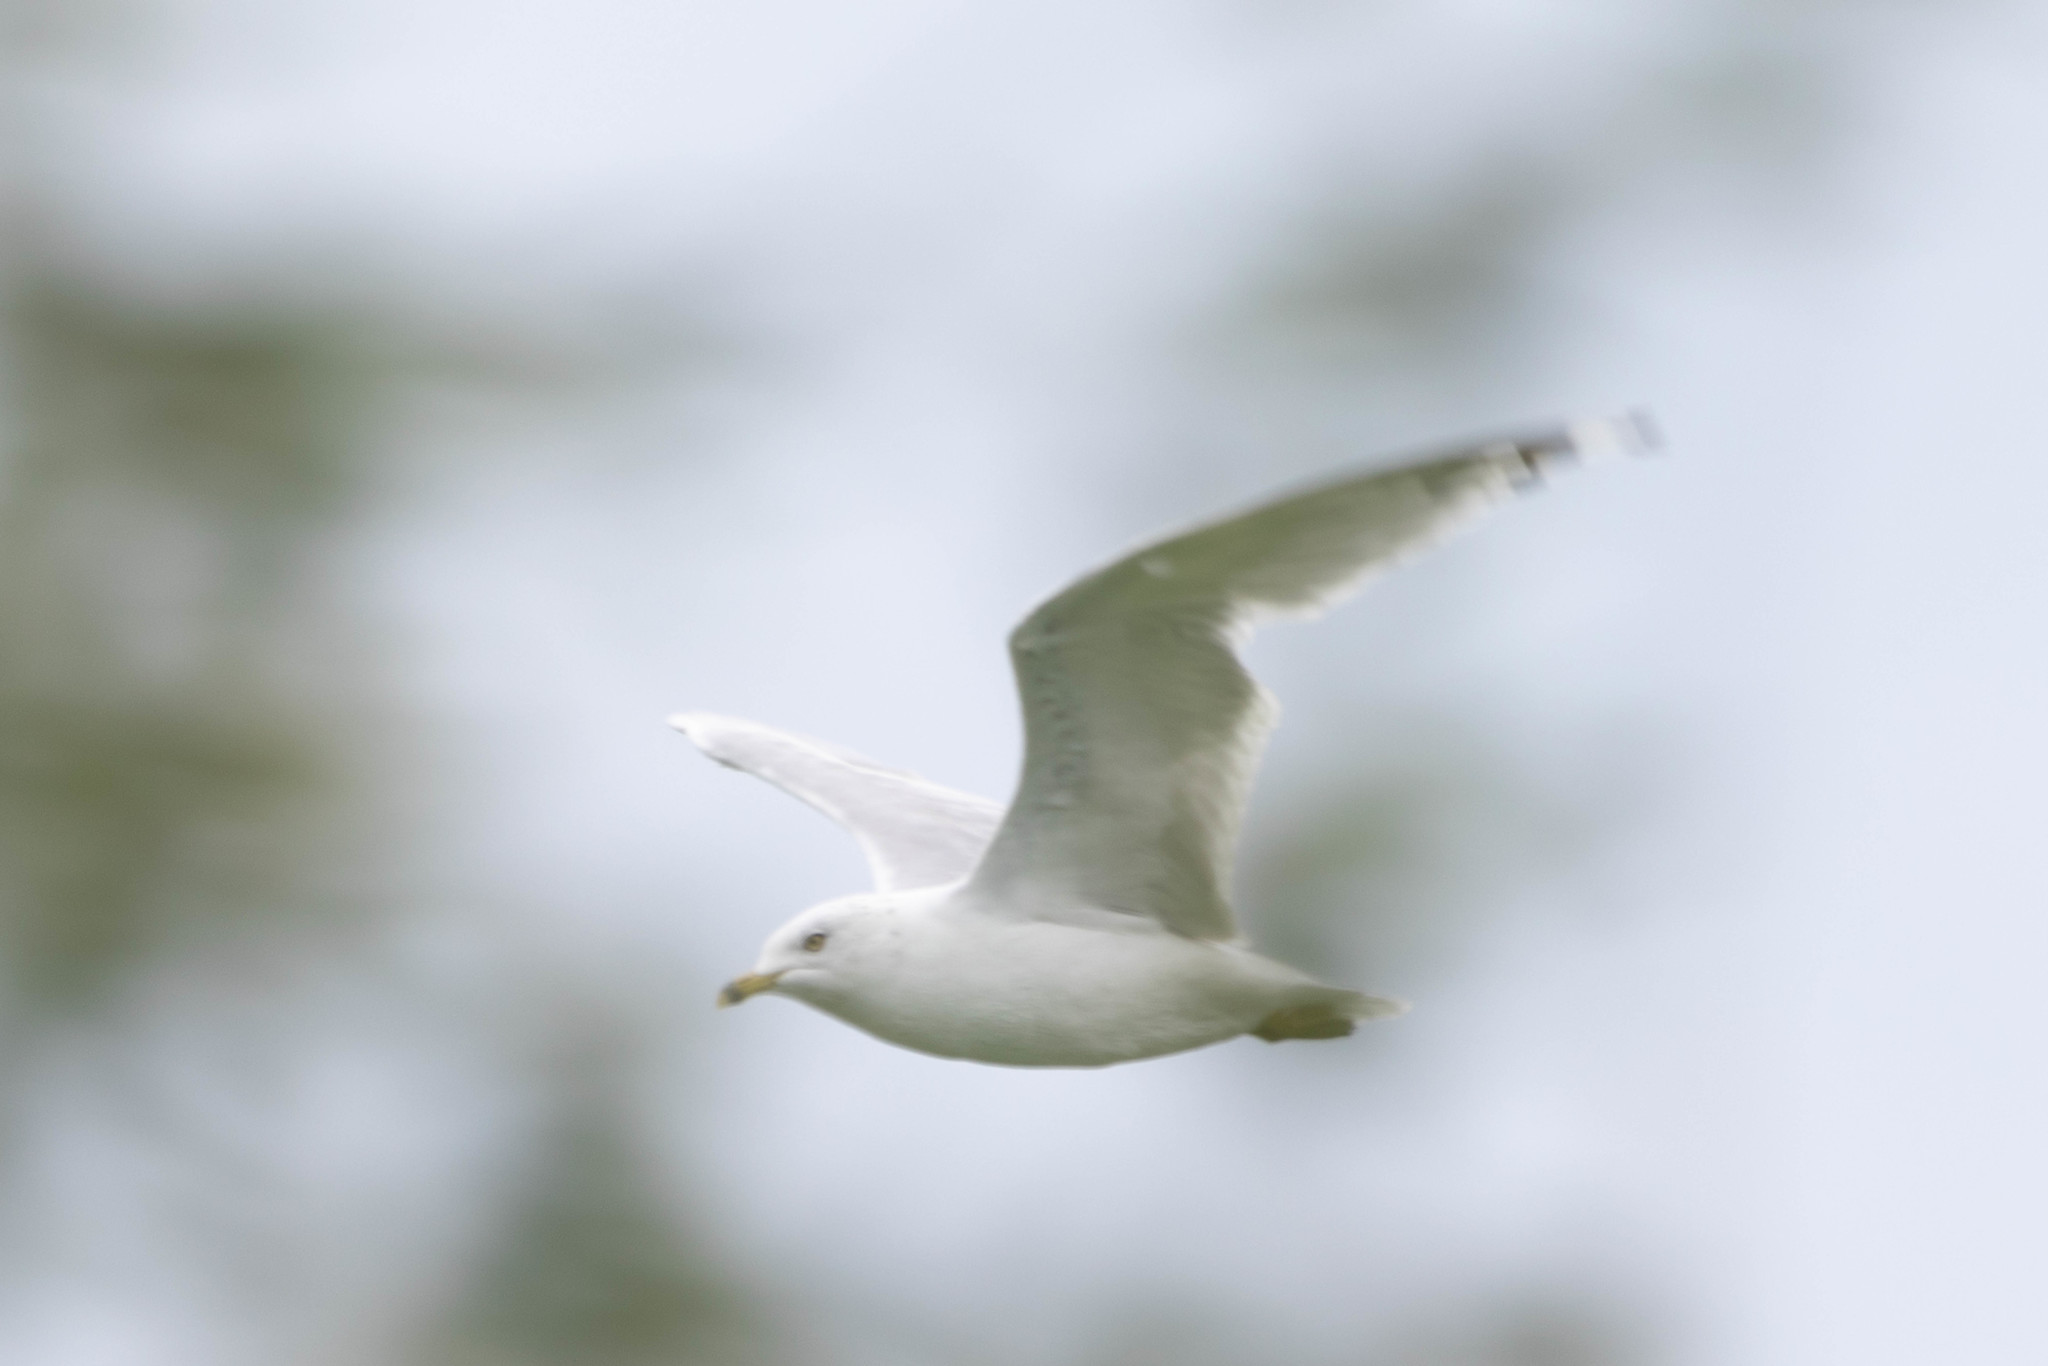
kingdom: Animalia
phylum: Chordata
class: Aves
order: Charadriiformes
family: Laridae
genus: Larus
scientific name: Larus delawarensis
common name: Ring-billed gull
